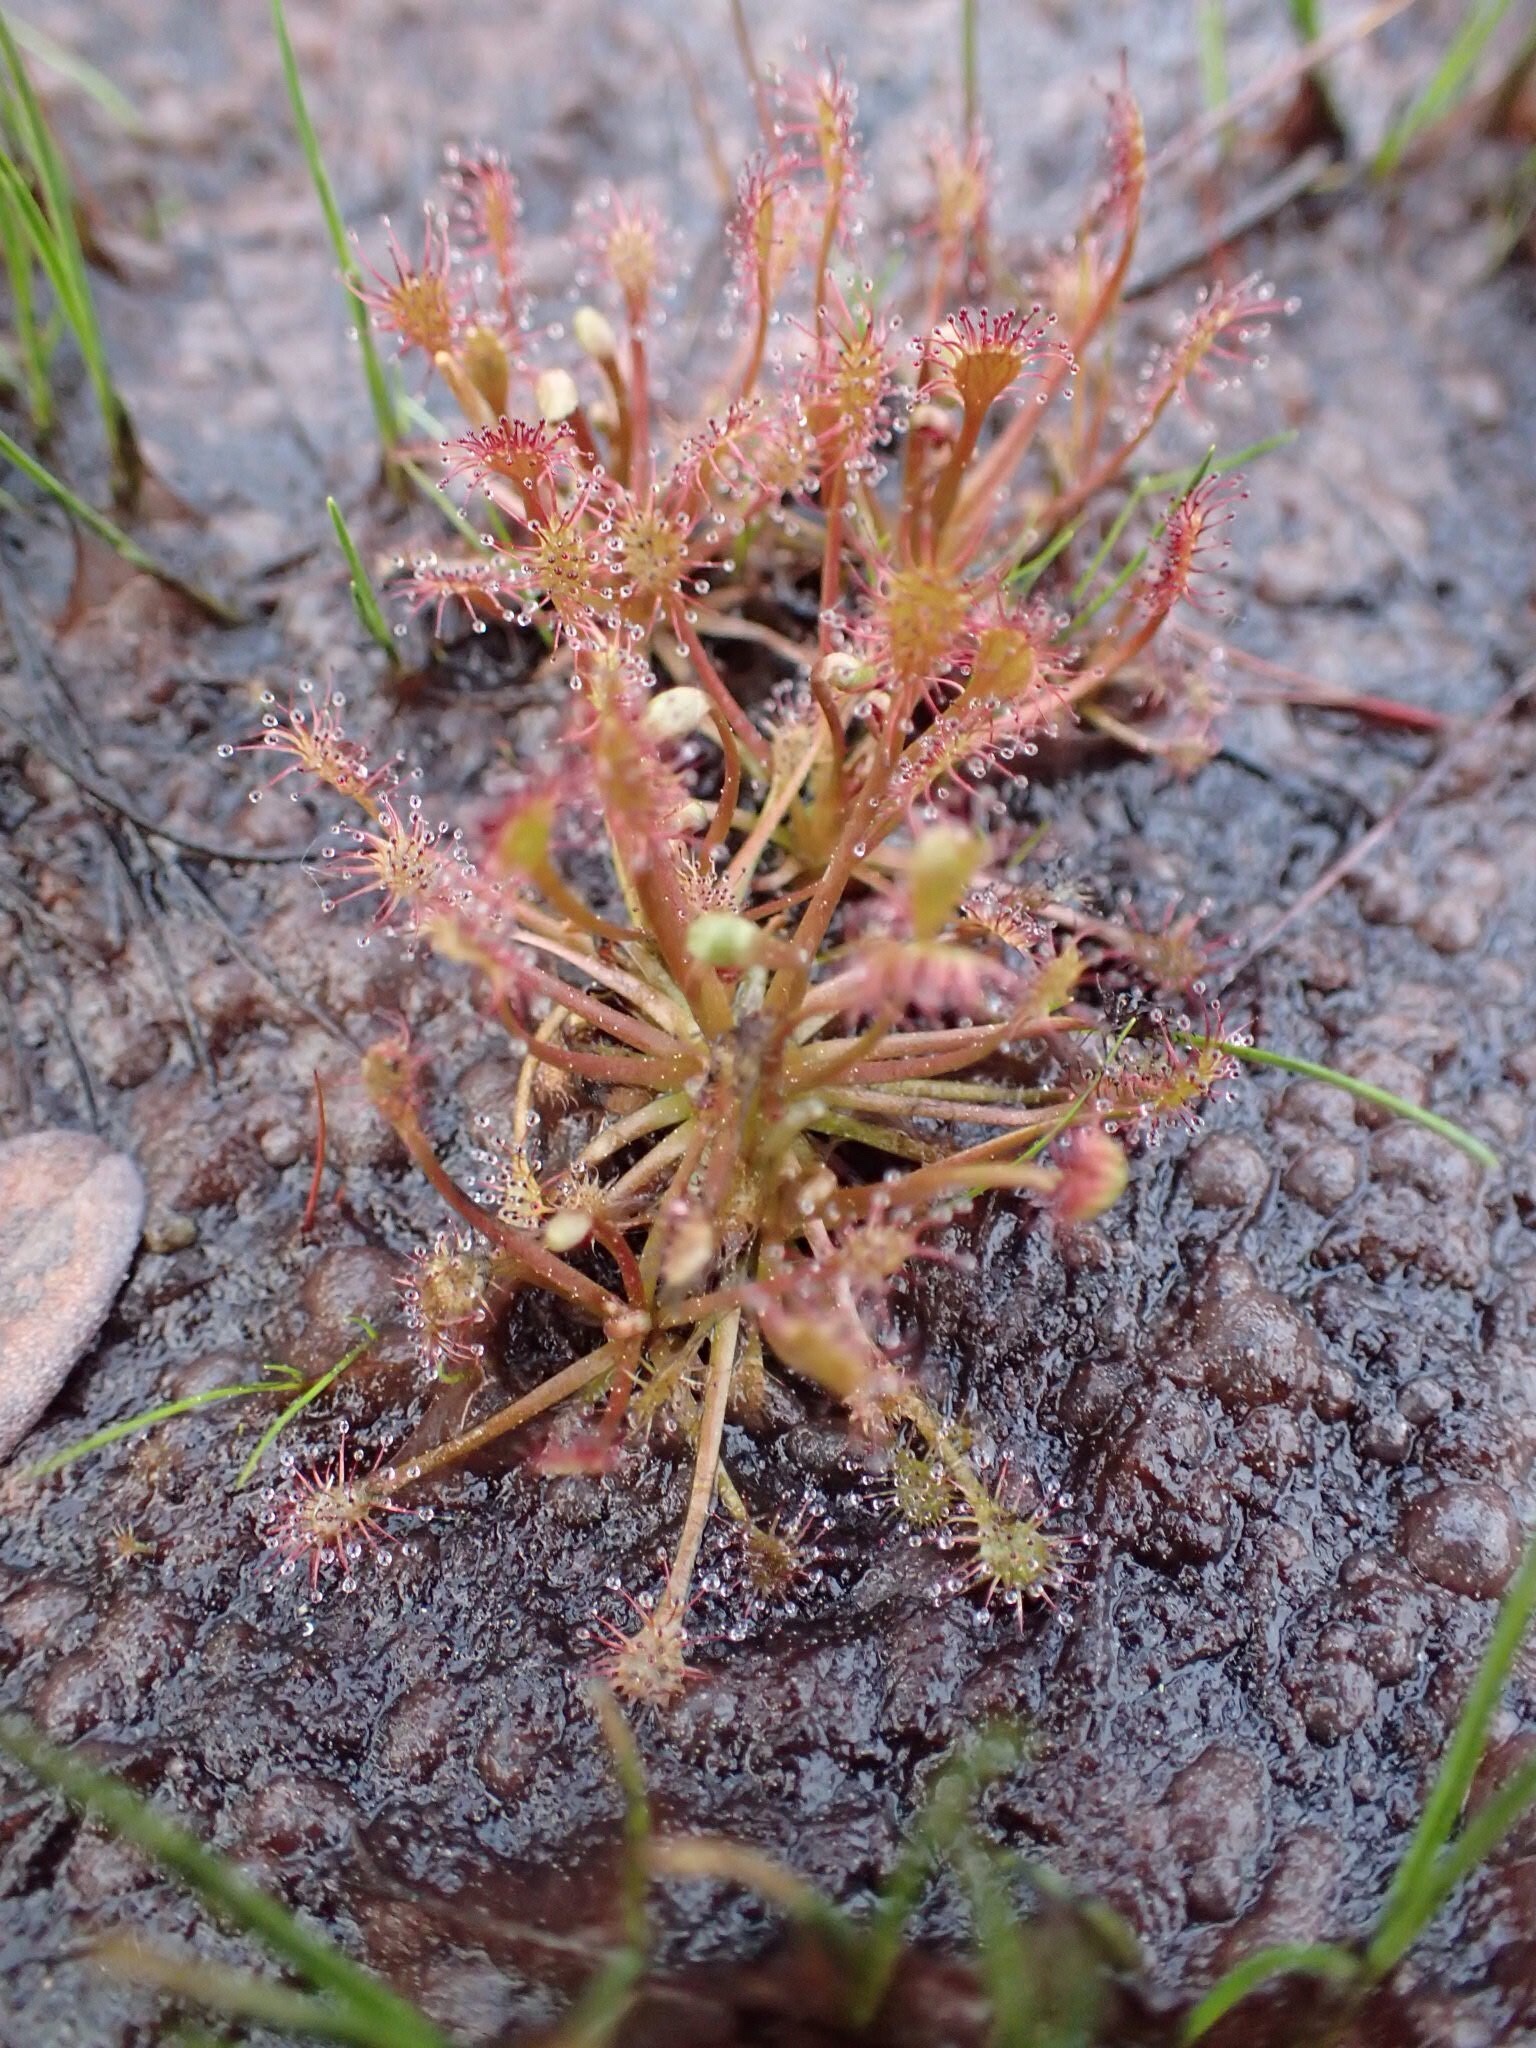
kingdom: Plantae
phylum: Tracheophyta
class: Magnoliopsida
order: Caryophyllales
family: Droseraceae
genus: Drosera
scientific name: Drosera intermedia
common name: Oblong-leaved sundew
